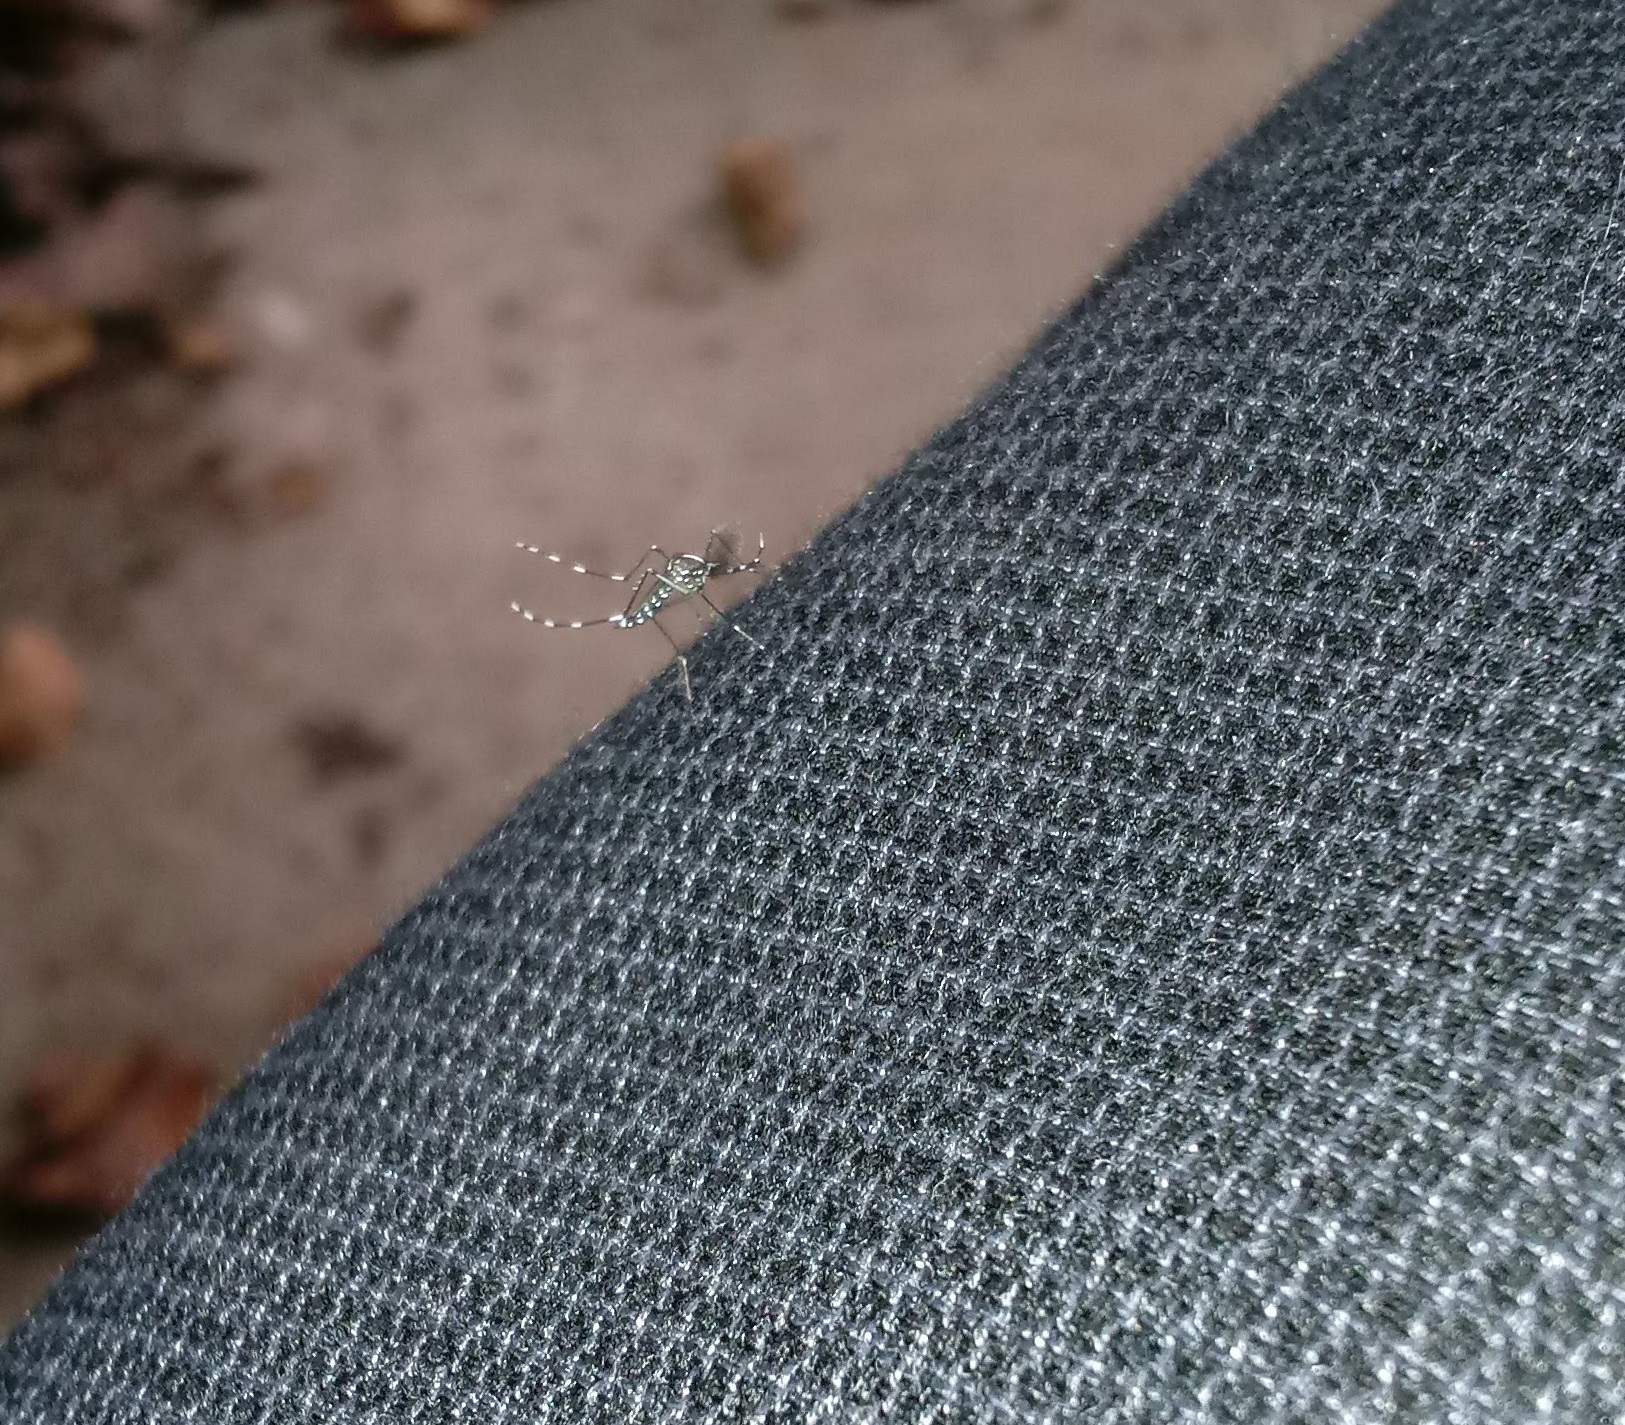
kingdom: Animalia
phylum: Arthropoda
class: Insecta
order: Diptera
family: Culicidae
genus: Aedes
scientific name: Aedes albopictus
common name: Tiger mosquito
